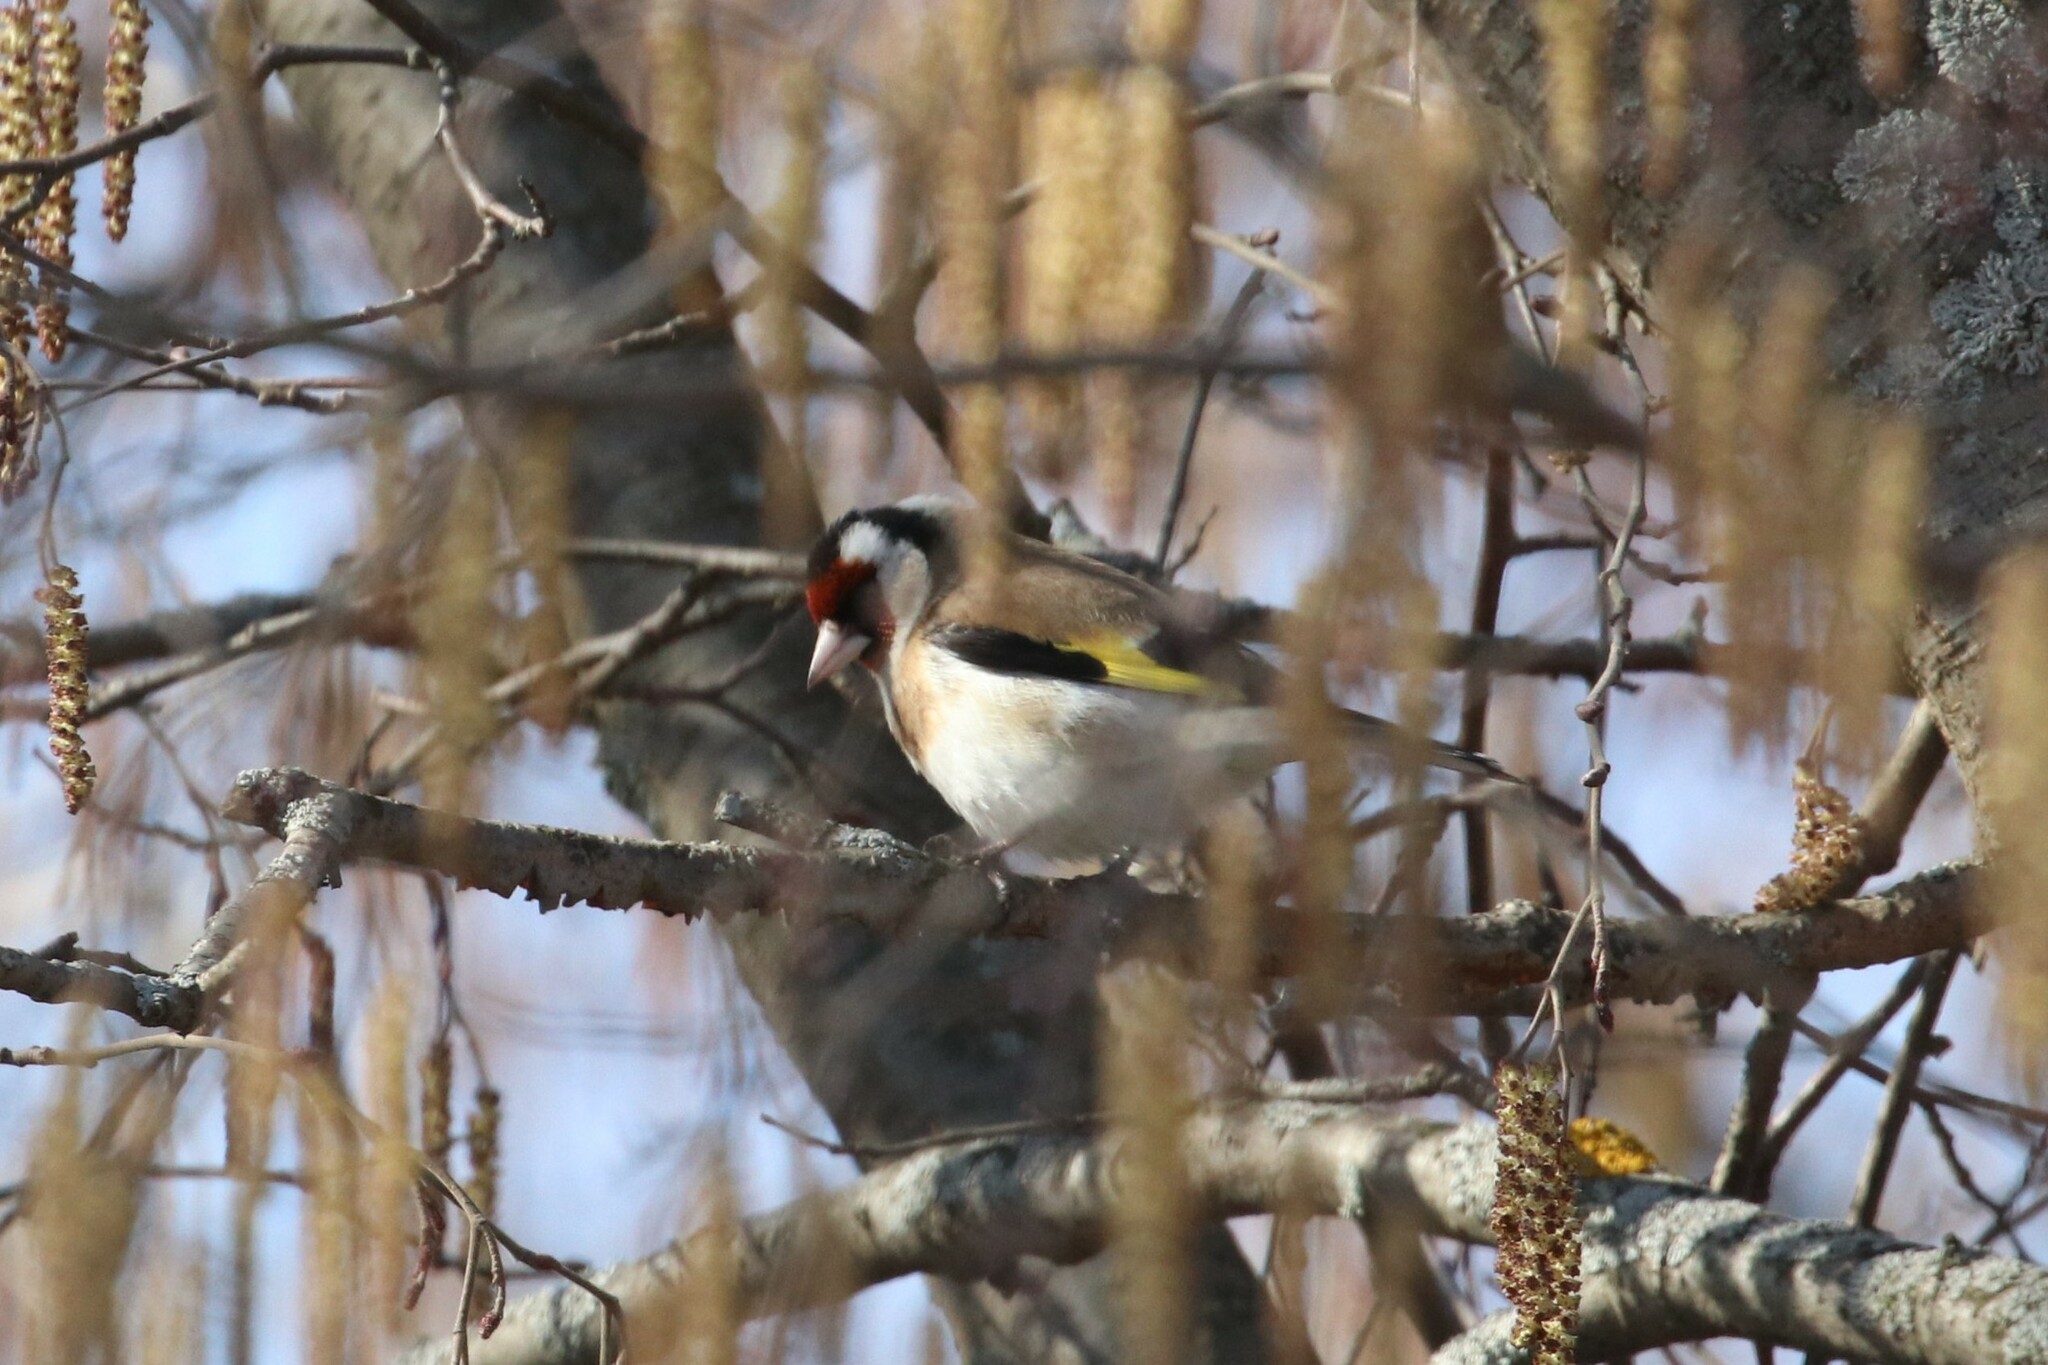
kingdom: Animalia
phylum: Chordata
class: Aves
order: Passeriformes
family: Fringillidae
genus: Carduelis
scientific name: Carduelis carduelis
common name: European goldfinch
